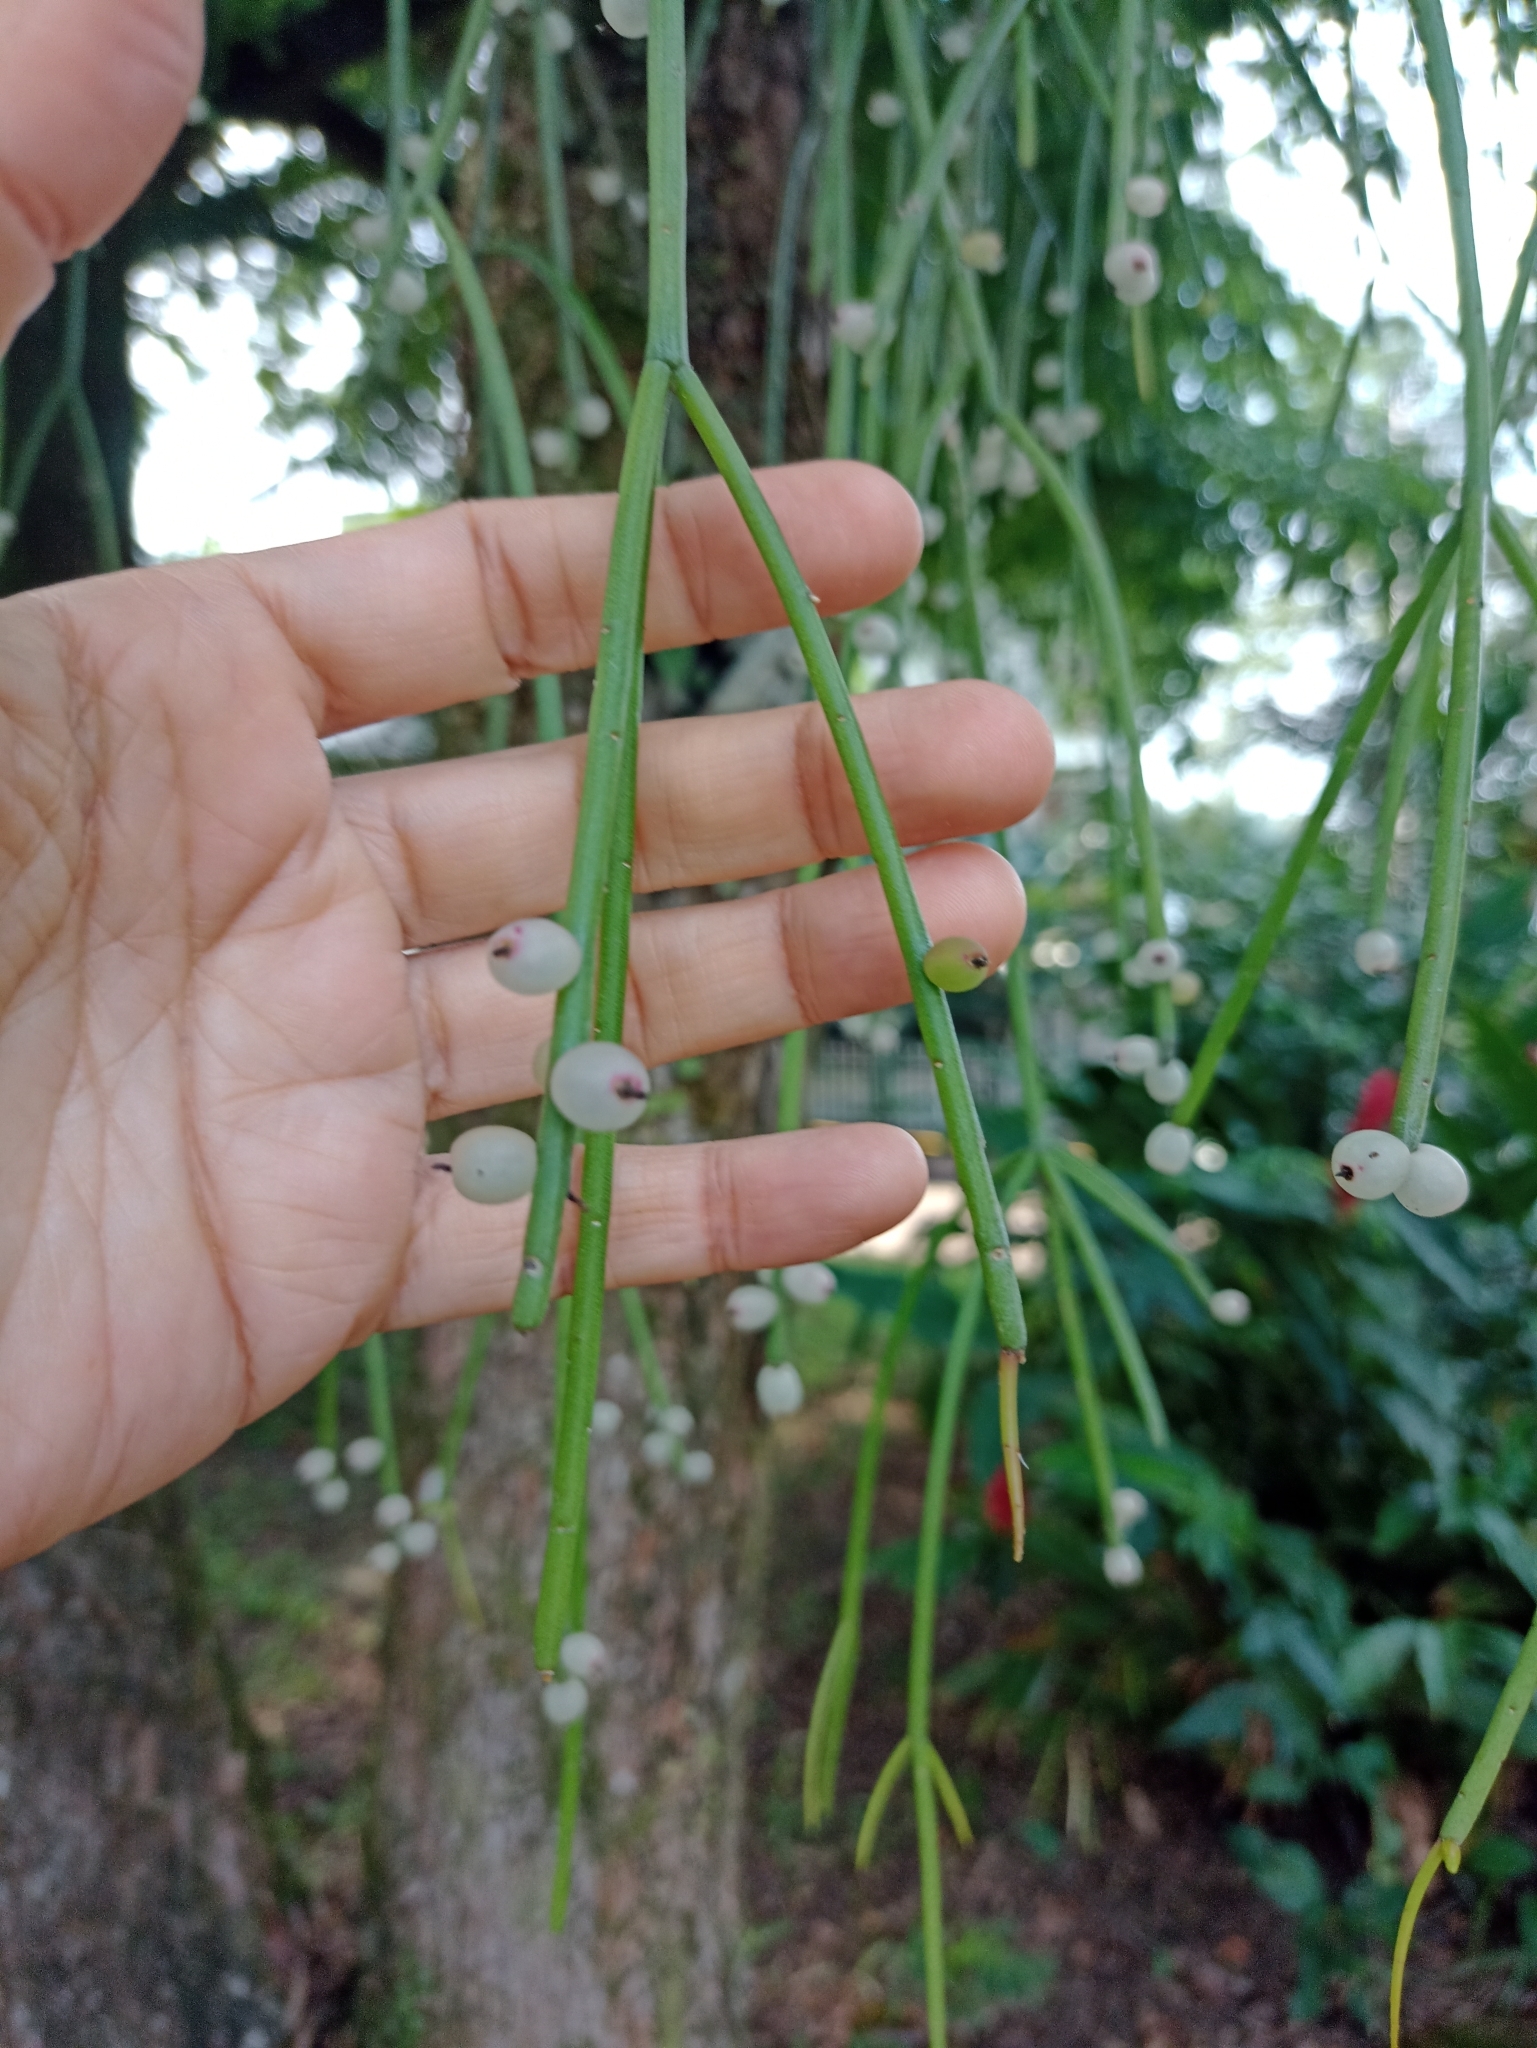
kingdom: Plantae
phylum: Tracheophyta
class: Magnoliopsida
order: Caryophyllales
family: Cactaceae
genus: Rhipsalis
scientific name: Rhipsalis baccifera
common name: Mistletoe cactus
